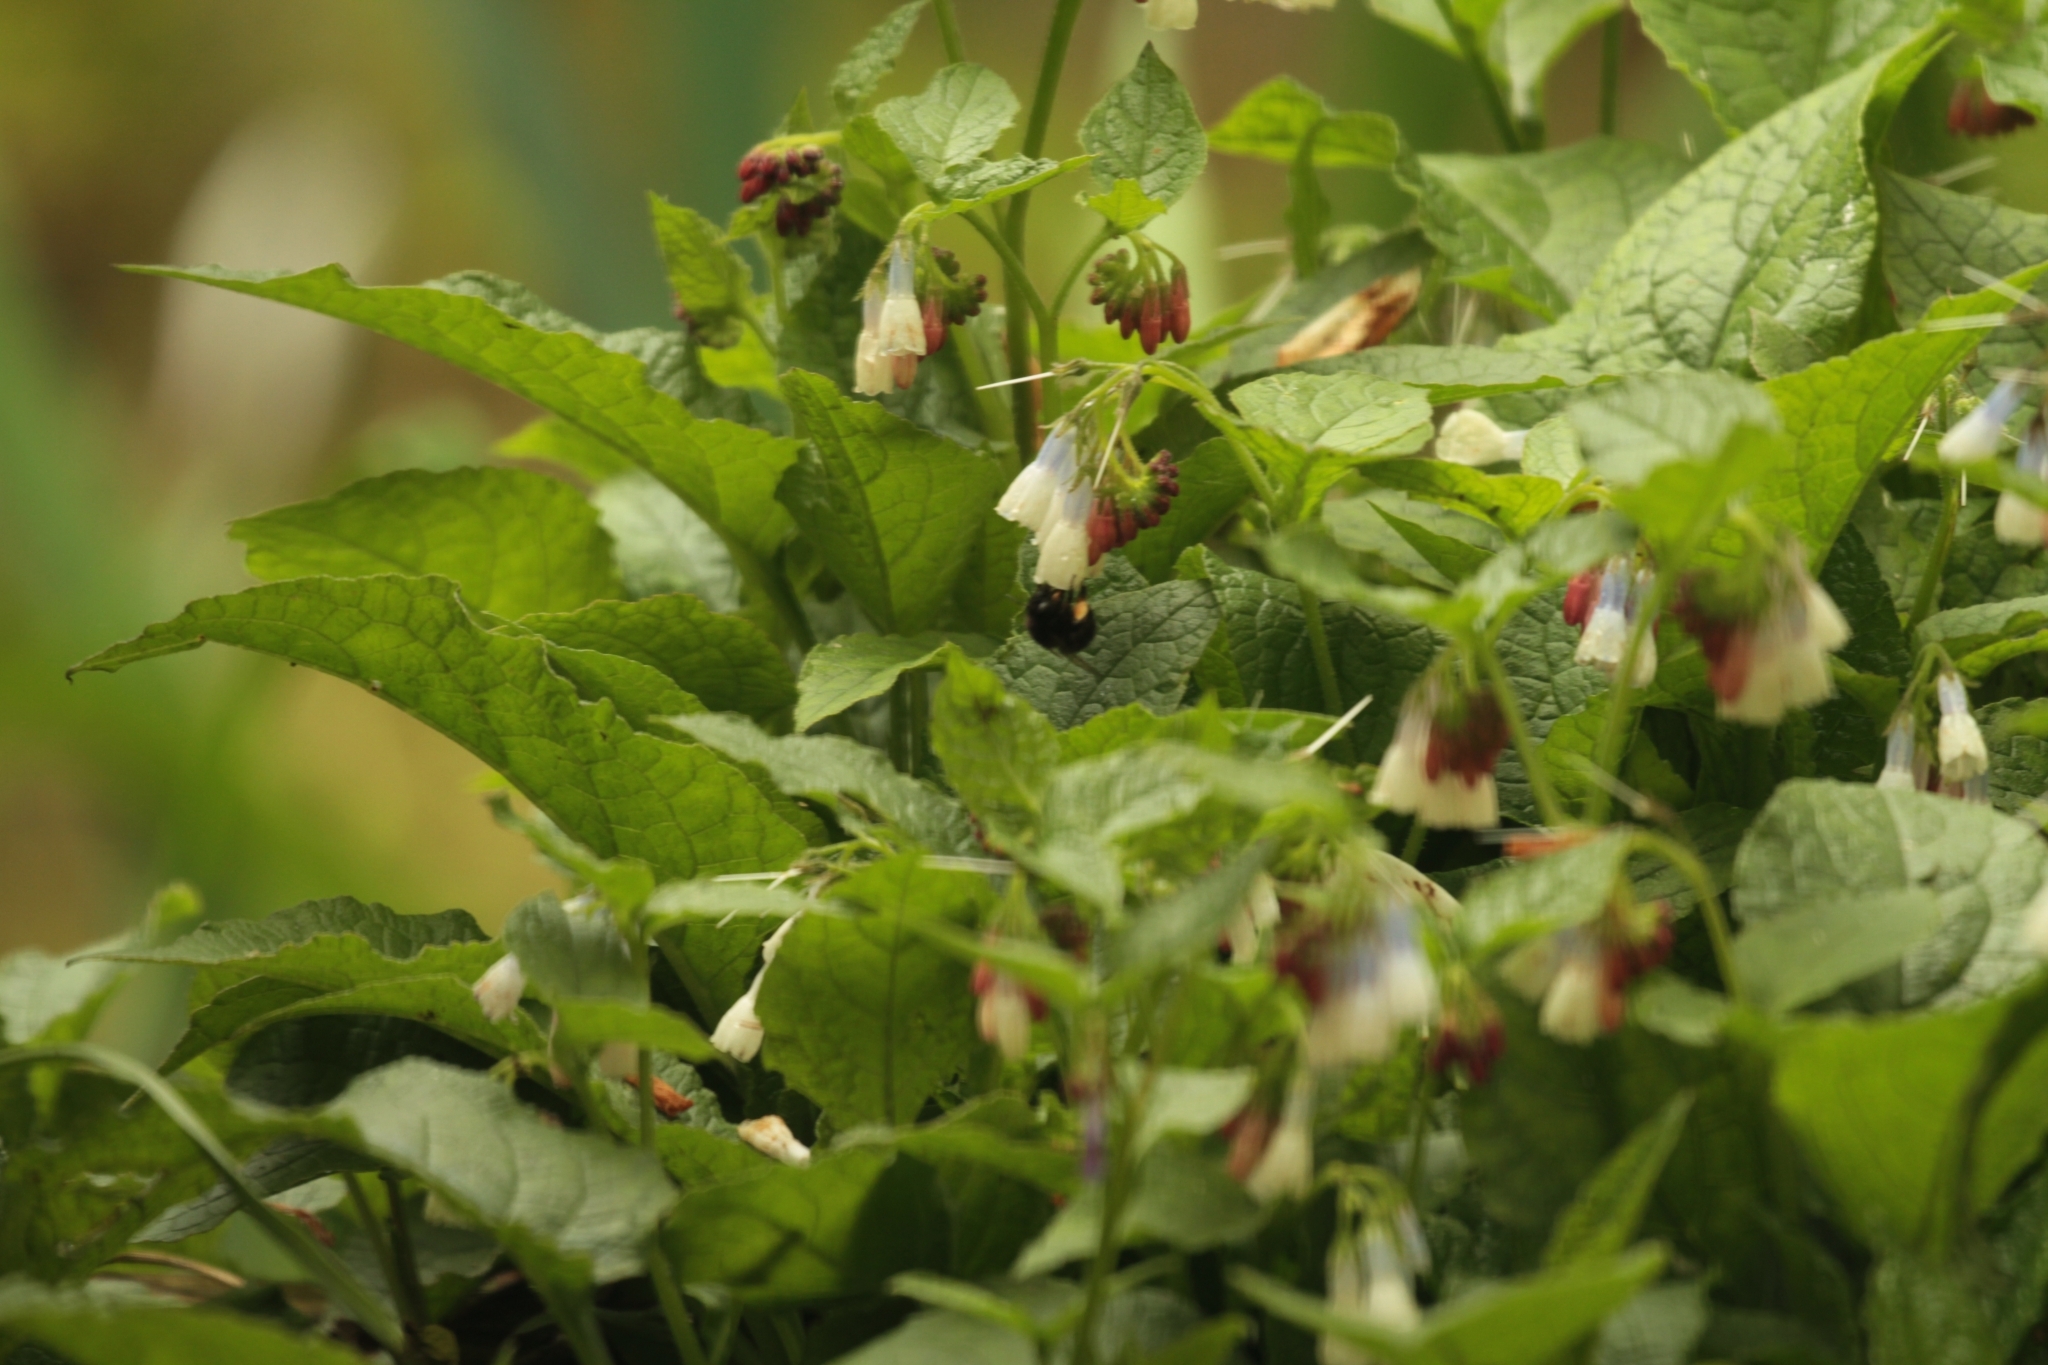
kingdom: Animalia
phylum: Arthropoda
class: Insecta
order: Hymenoptera
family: Apidae
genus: Anthophora
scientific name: Anthophora plumipes
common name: Hairy-footed flower bee
